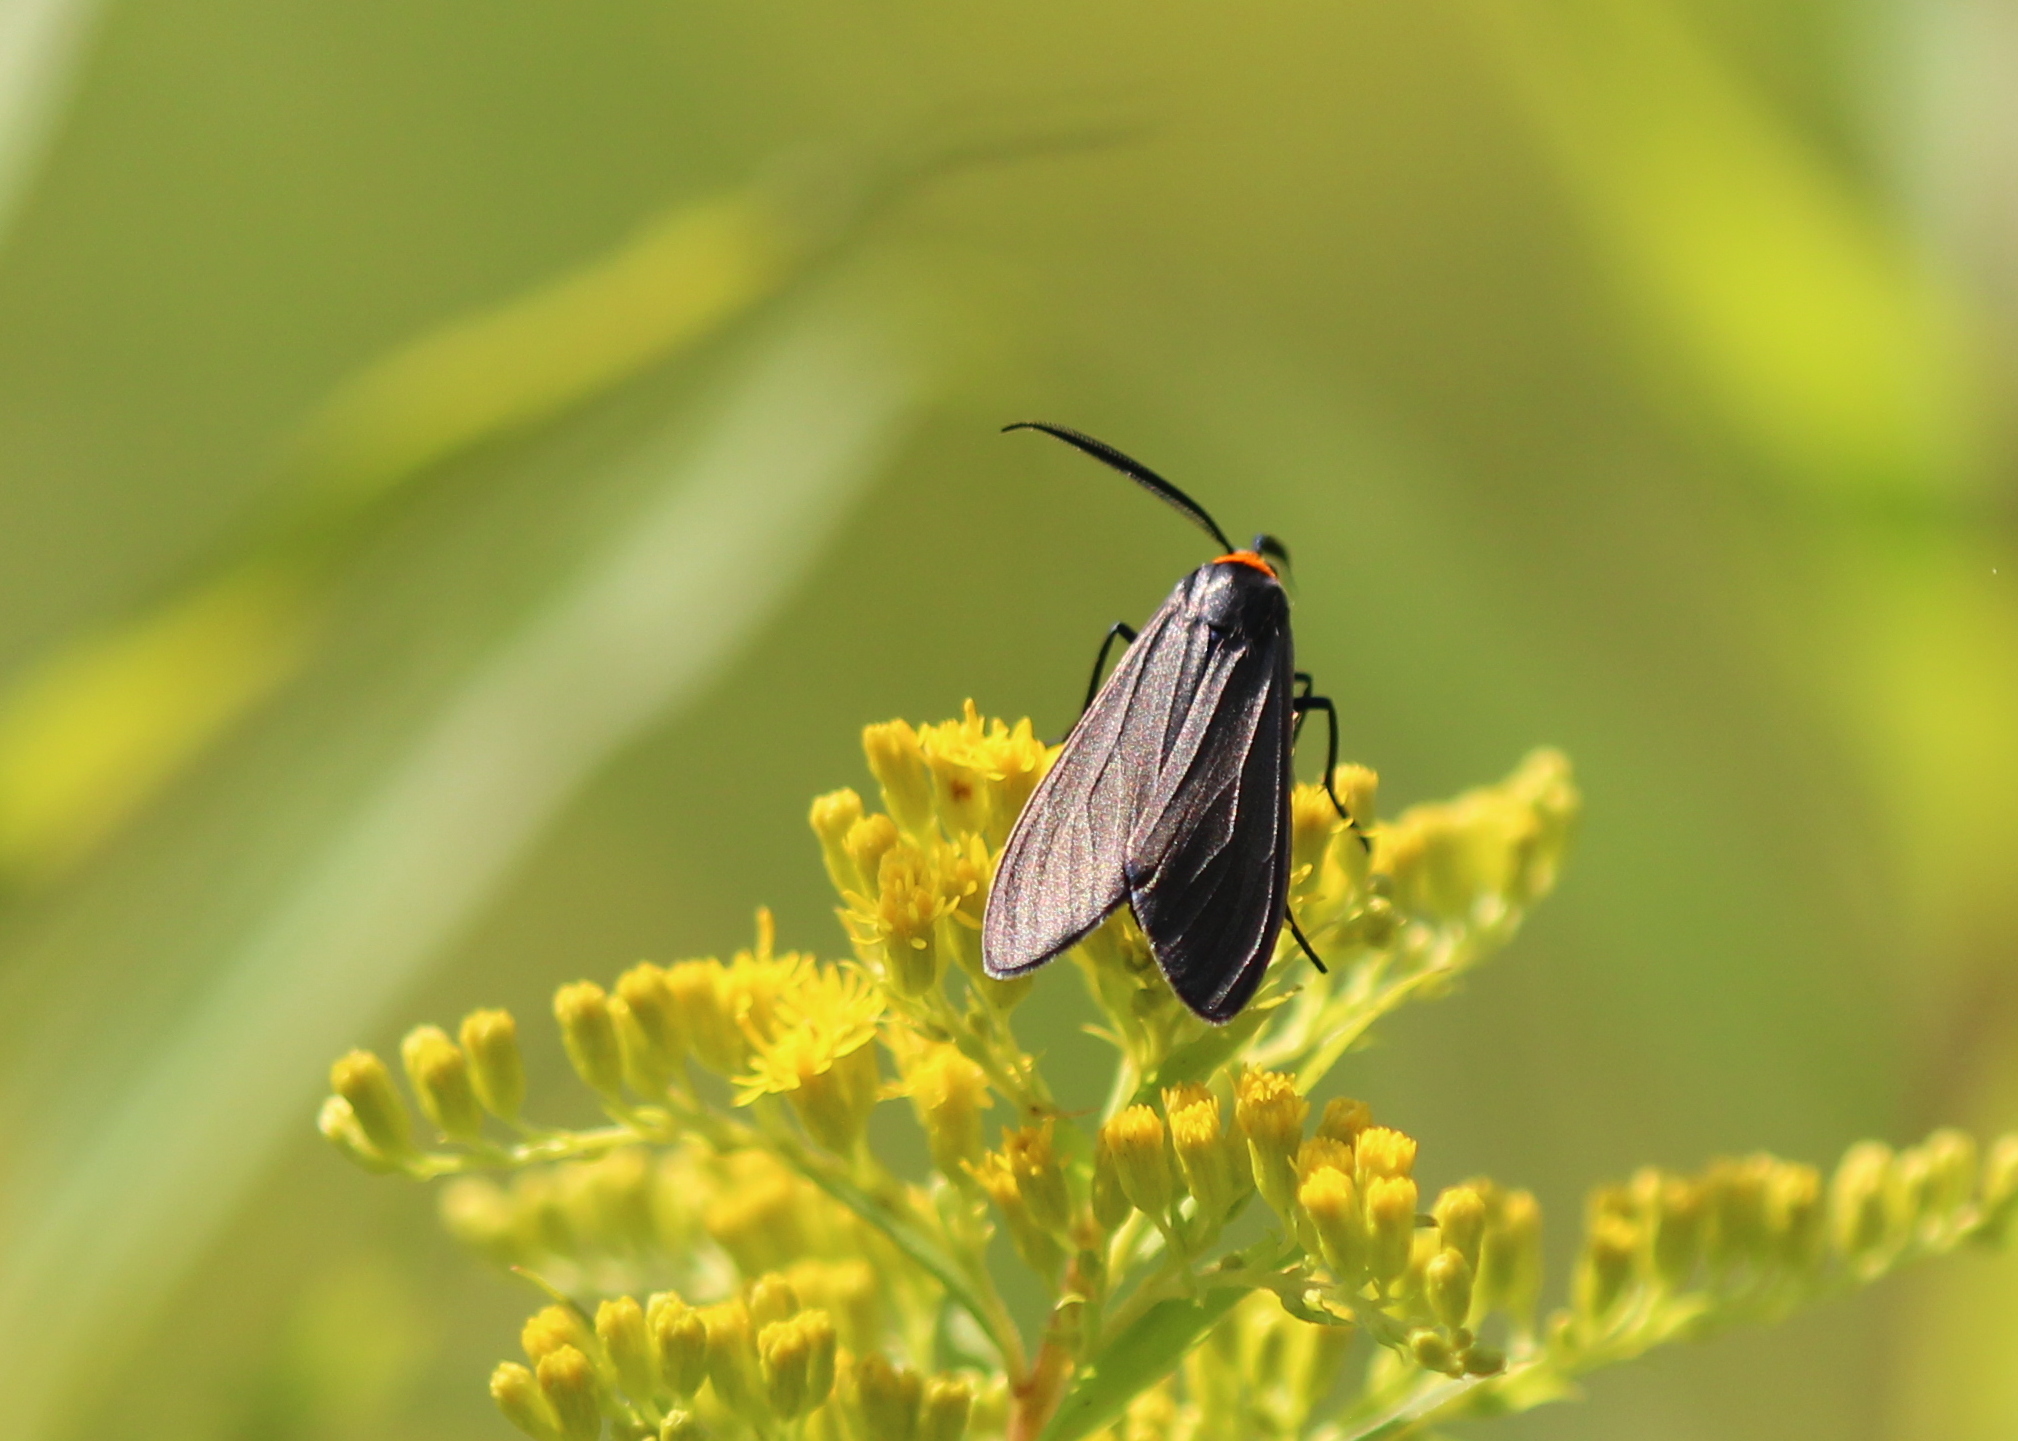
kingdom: Animalia
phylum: Arthropoda
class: Insecta
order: Lepidoptera
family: Erebidae
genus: Cisseps
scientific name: Cisseps fulvicollis
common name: Yellow-collared scape moth
